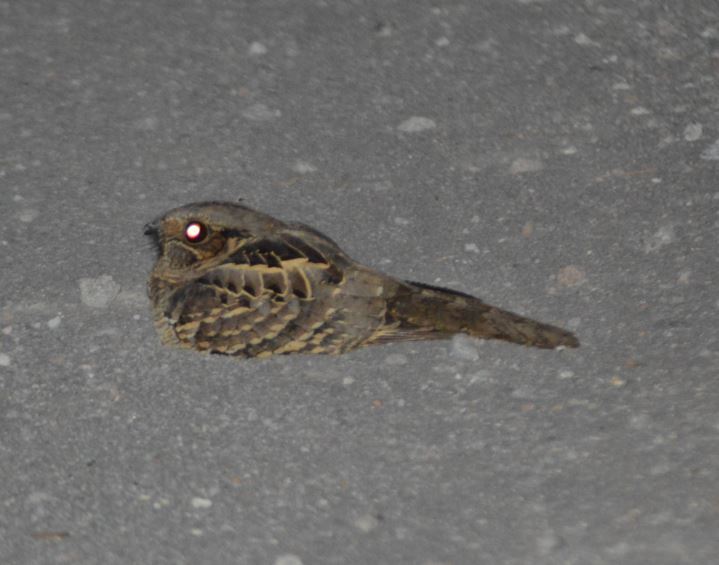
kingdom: Animalia
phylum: Chordata
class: Aves
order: Caprimulgiformes
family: Caprimulgidae
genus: Nyctidromus
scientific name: Nyctidromus albicollis
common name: Pauraque
